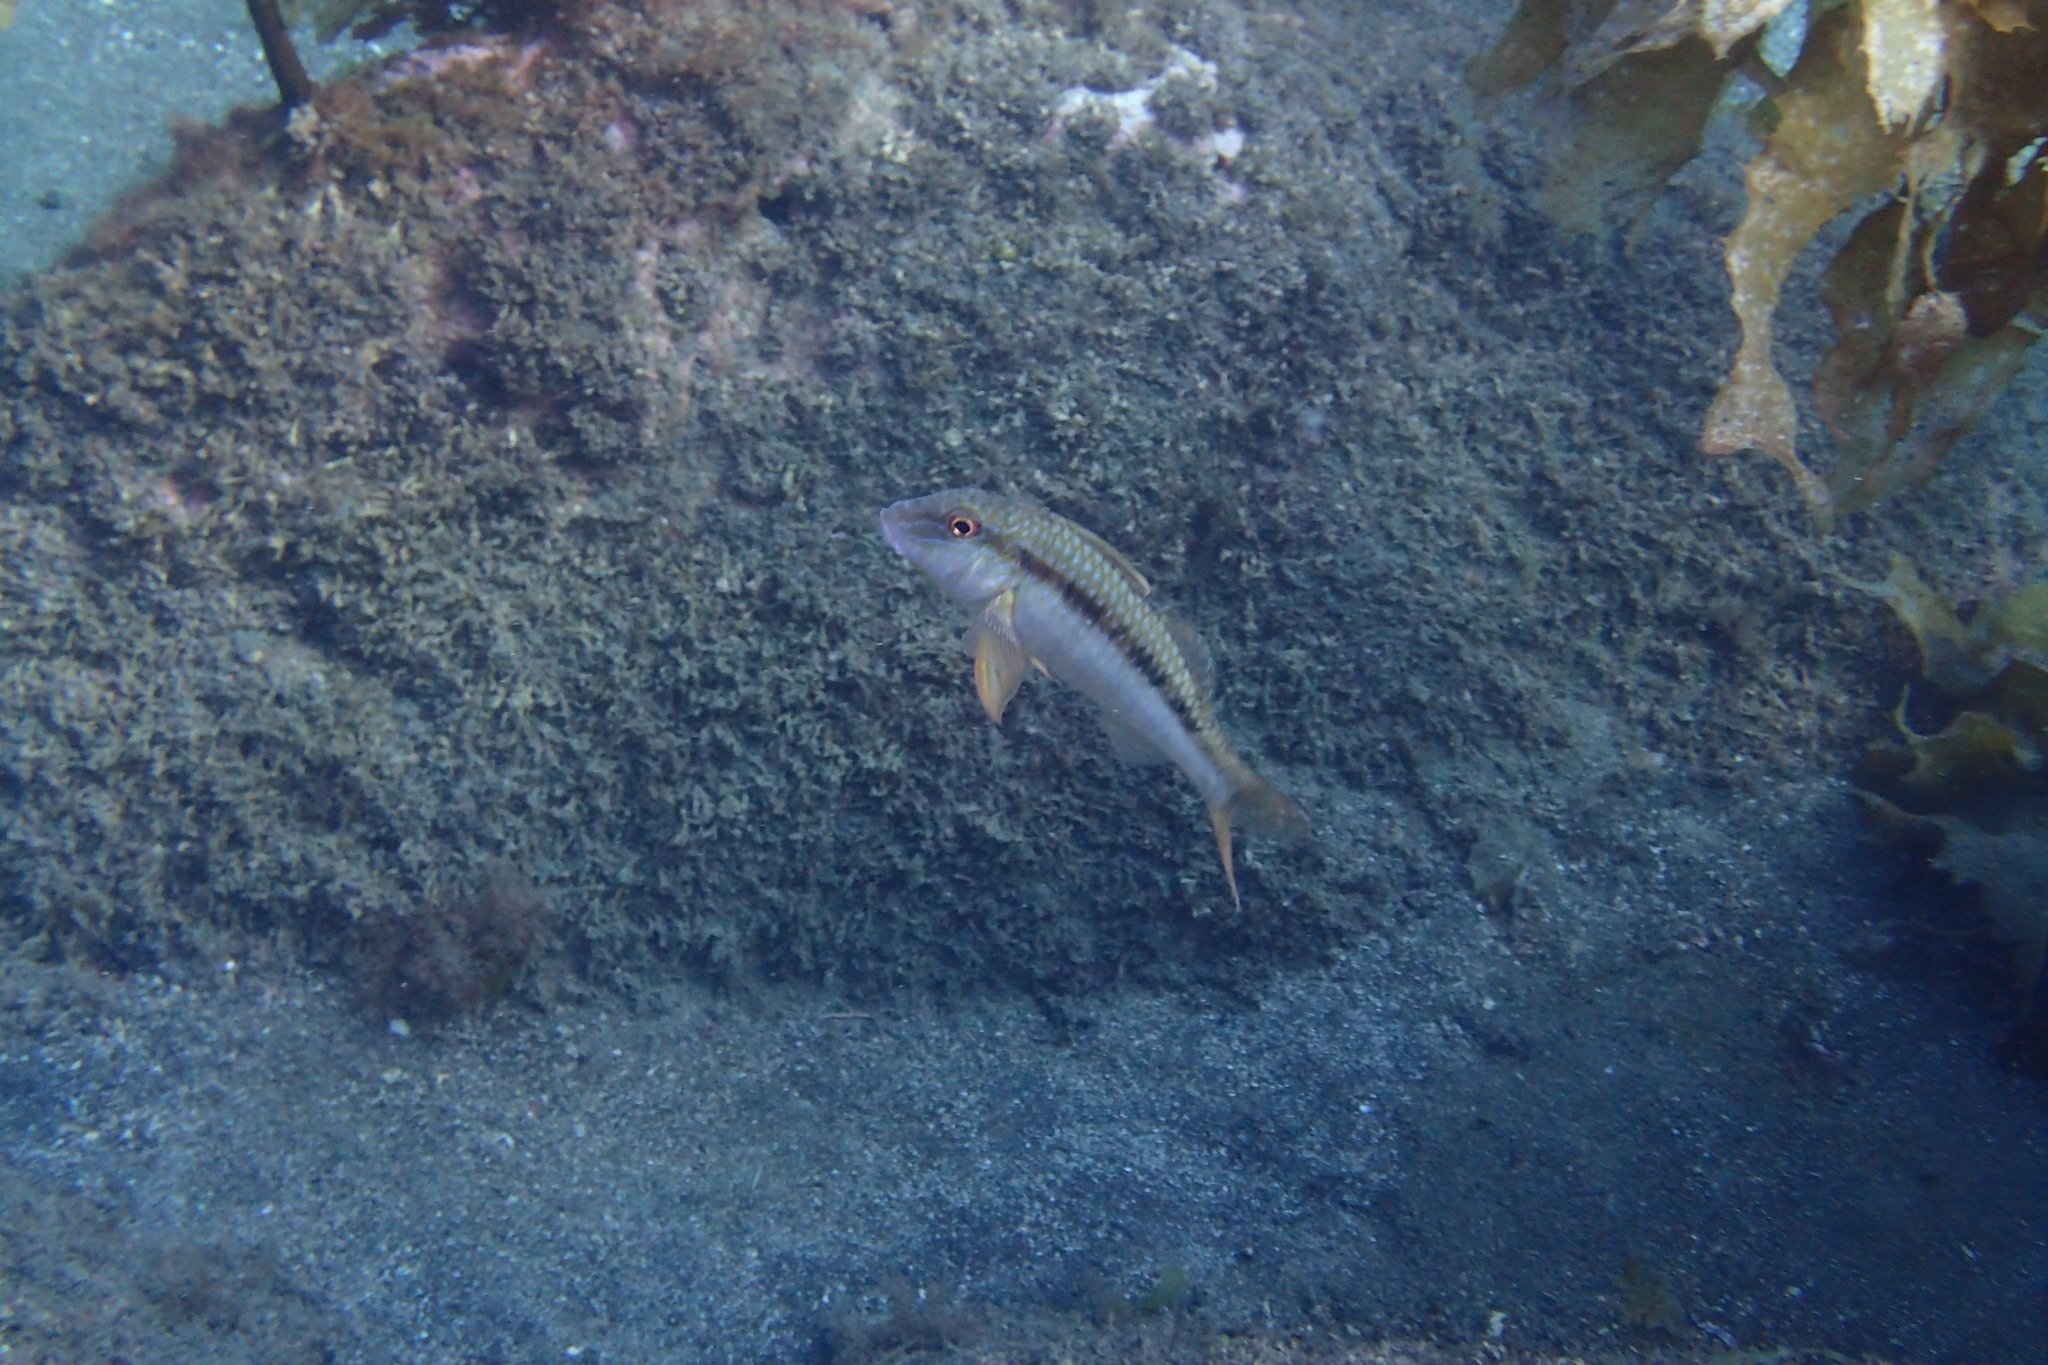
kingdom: Animalia
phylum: Chordata
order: Perciformes
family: Mullidae
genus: Upeneichthys
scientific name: Upeneichthys lineatus
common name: Red mullet
